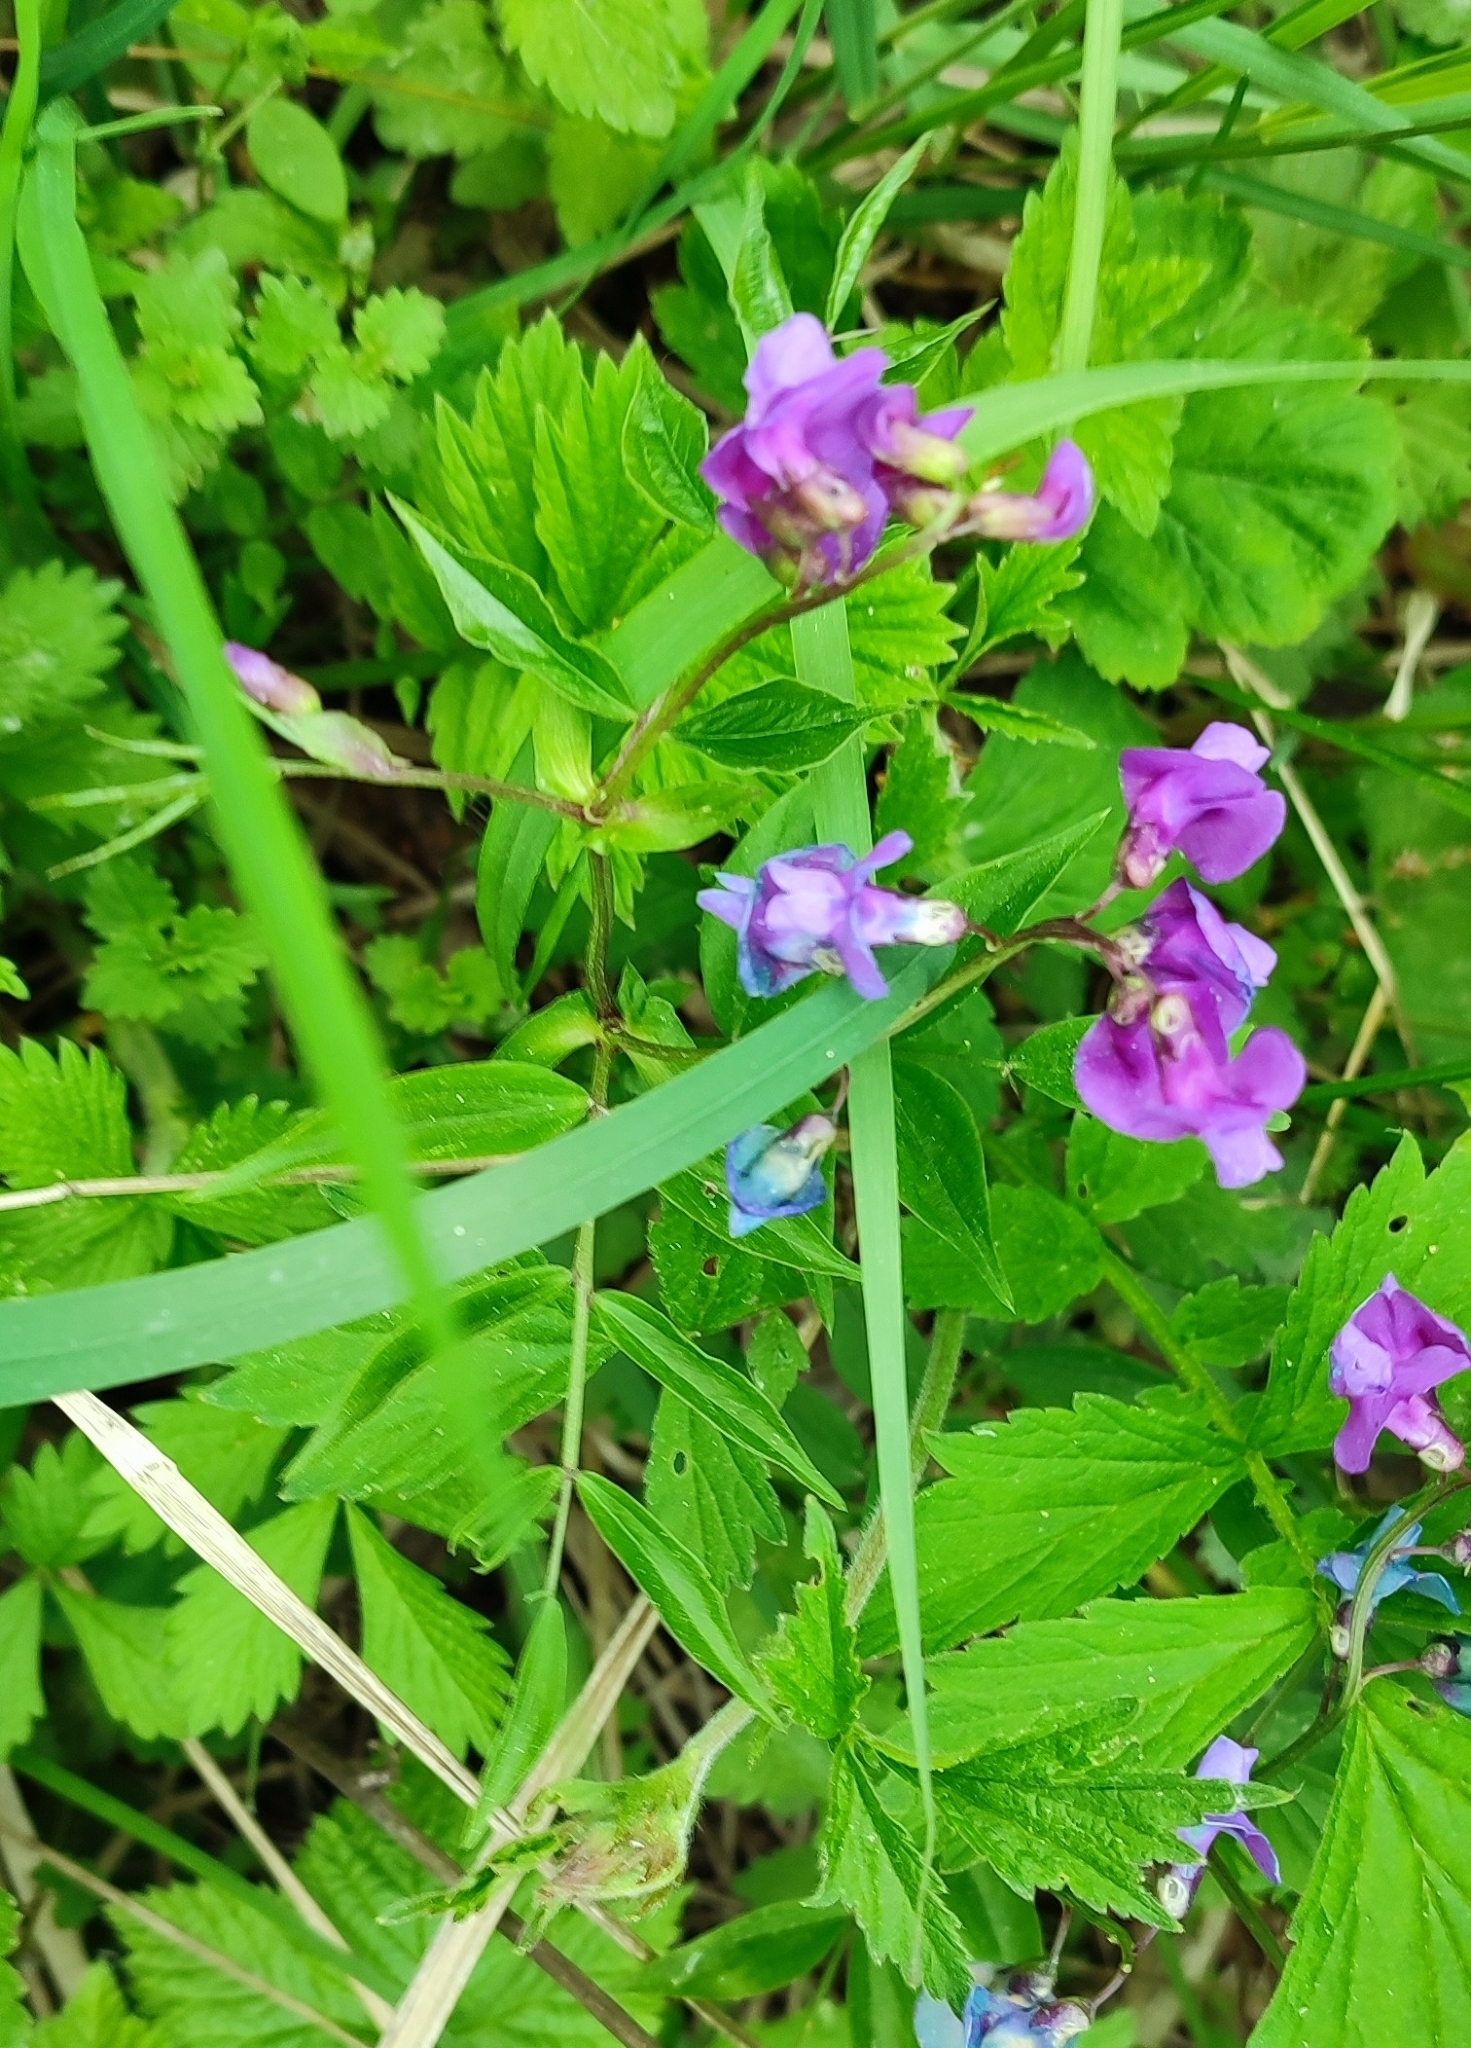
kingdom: Plantae
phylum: Tracheophyta
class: Magnoliopsida
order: Fabales
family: Fabaceae
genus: Lathyrus
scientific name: Lathyrus vernus
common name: Spring pea
